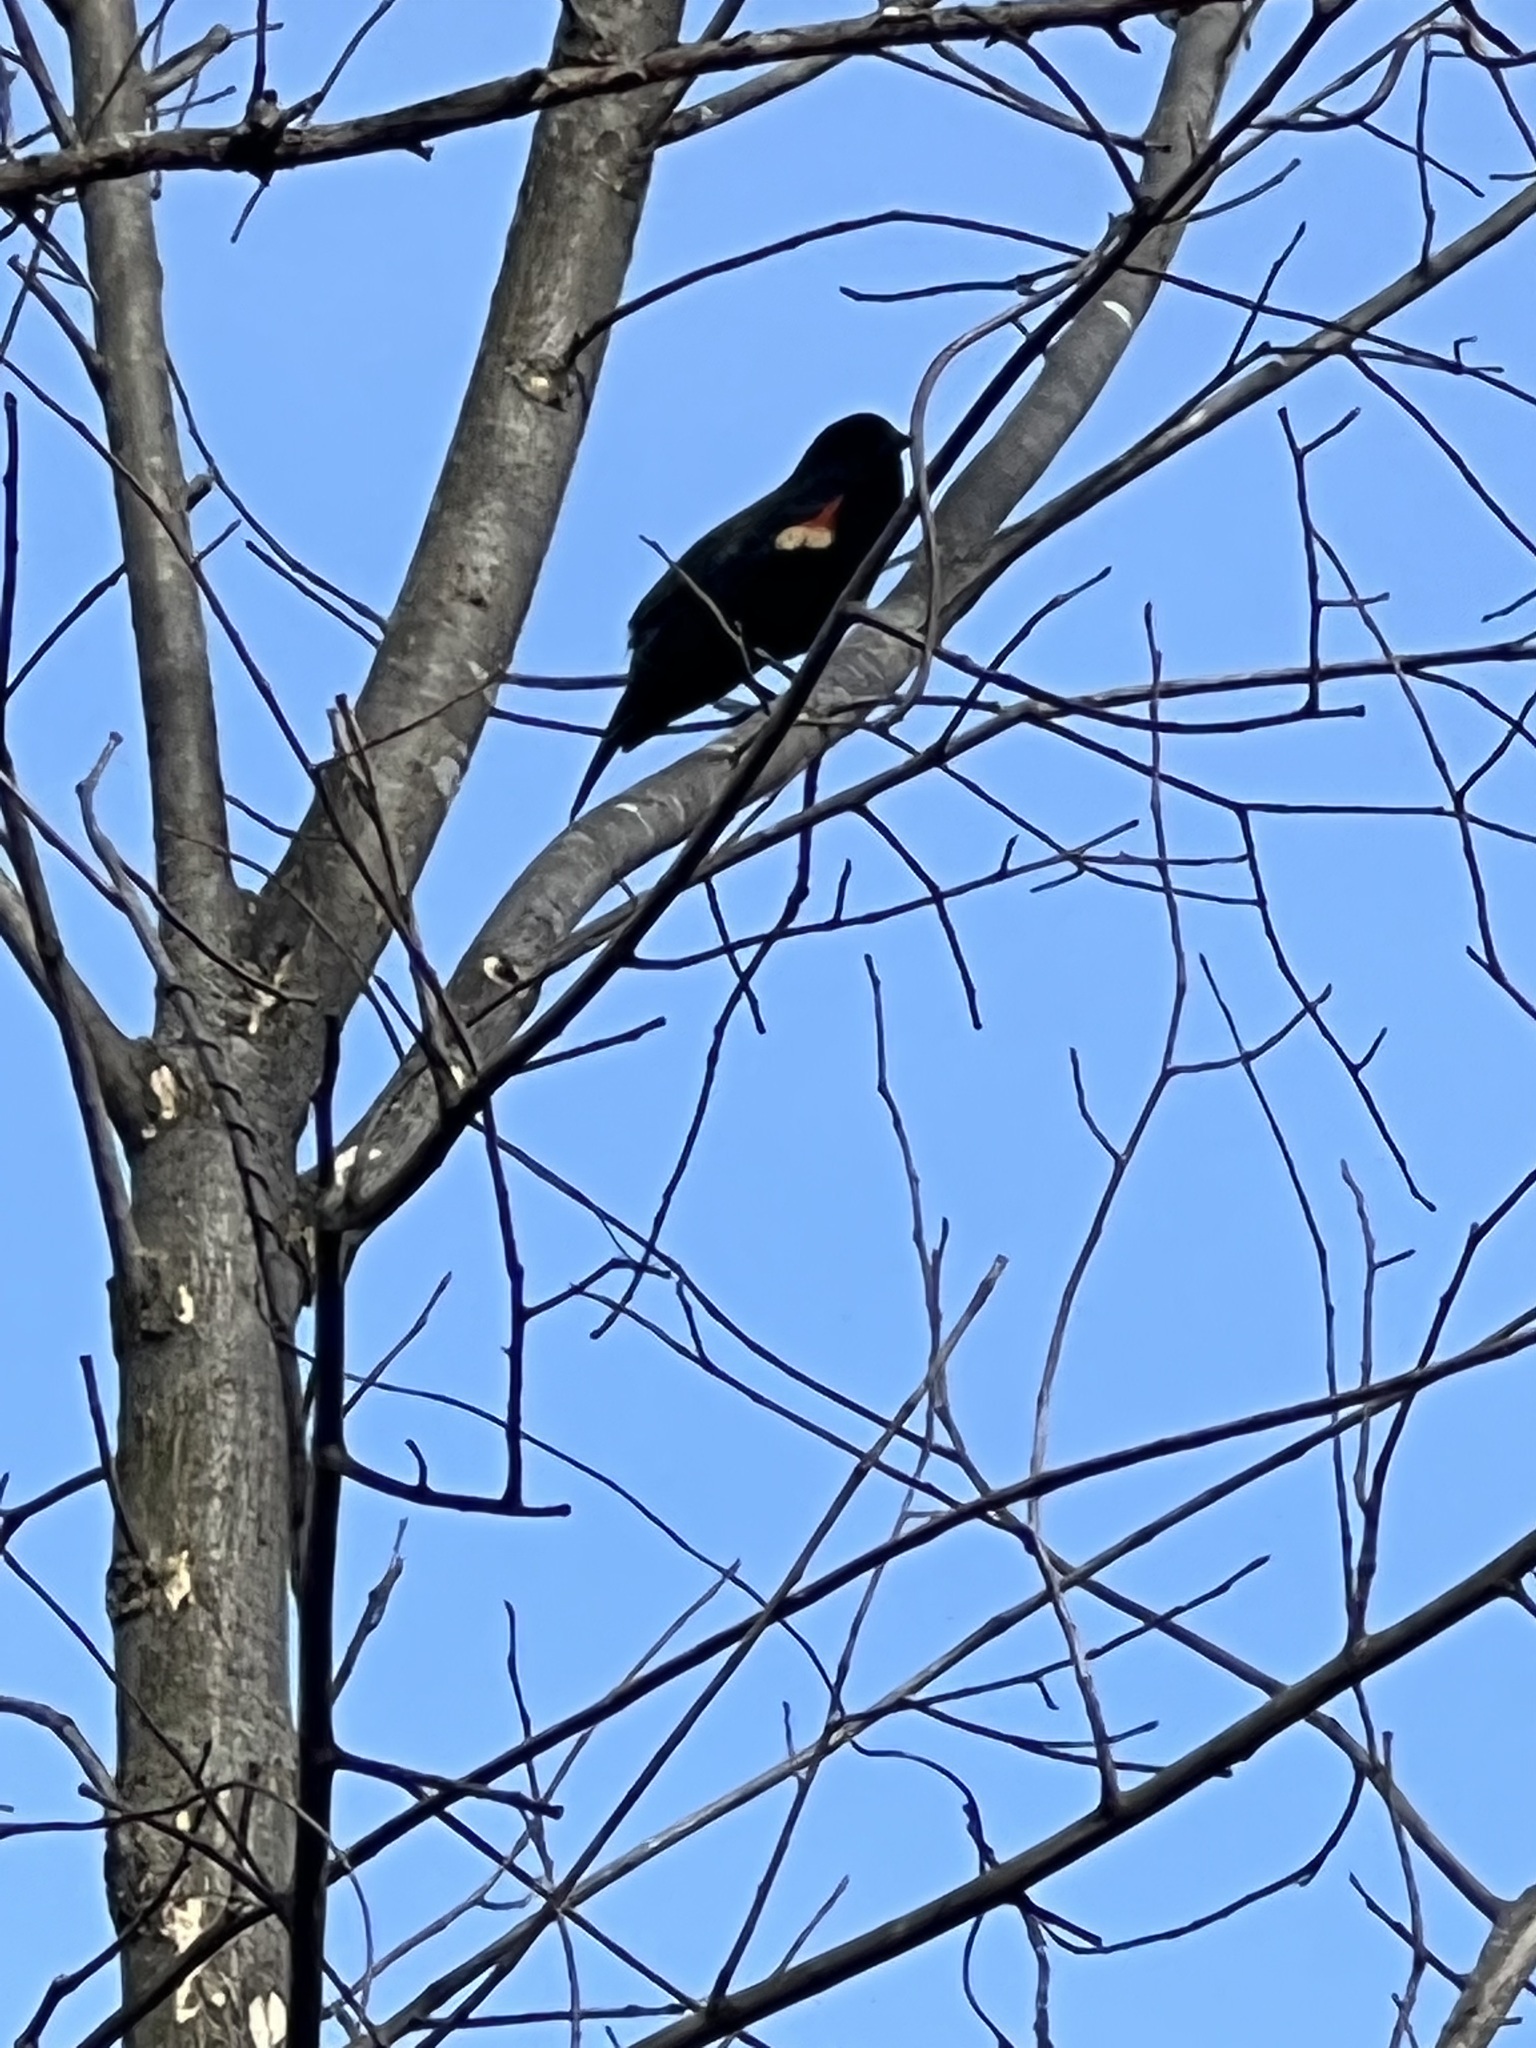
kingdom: Animalia
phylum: Chordata
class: Aves
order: Passeriformes
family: Icteridae
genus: Agelaius
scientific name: Agelaius phoeniceus
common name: Red-winged blackbird
